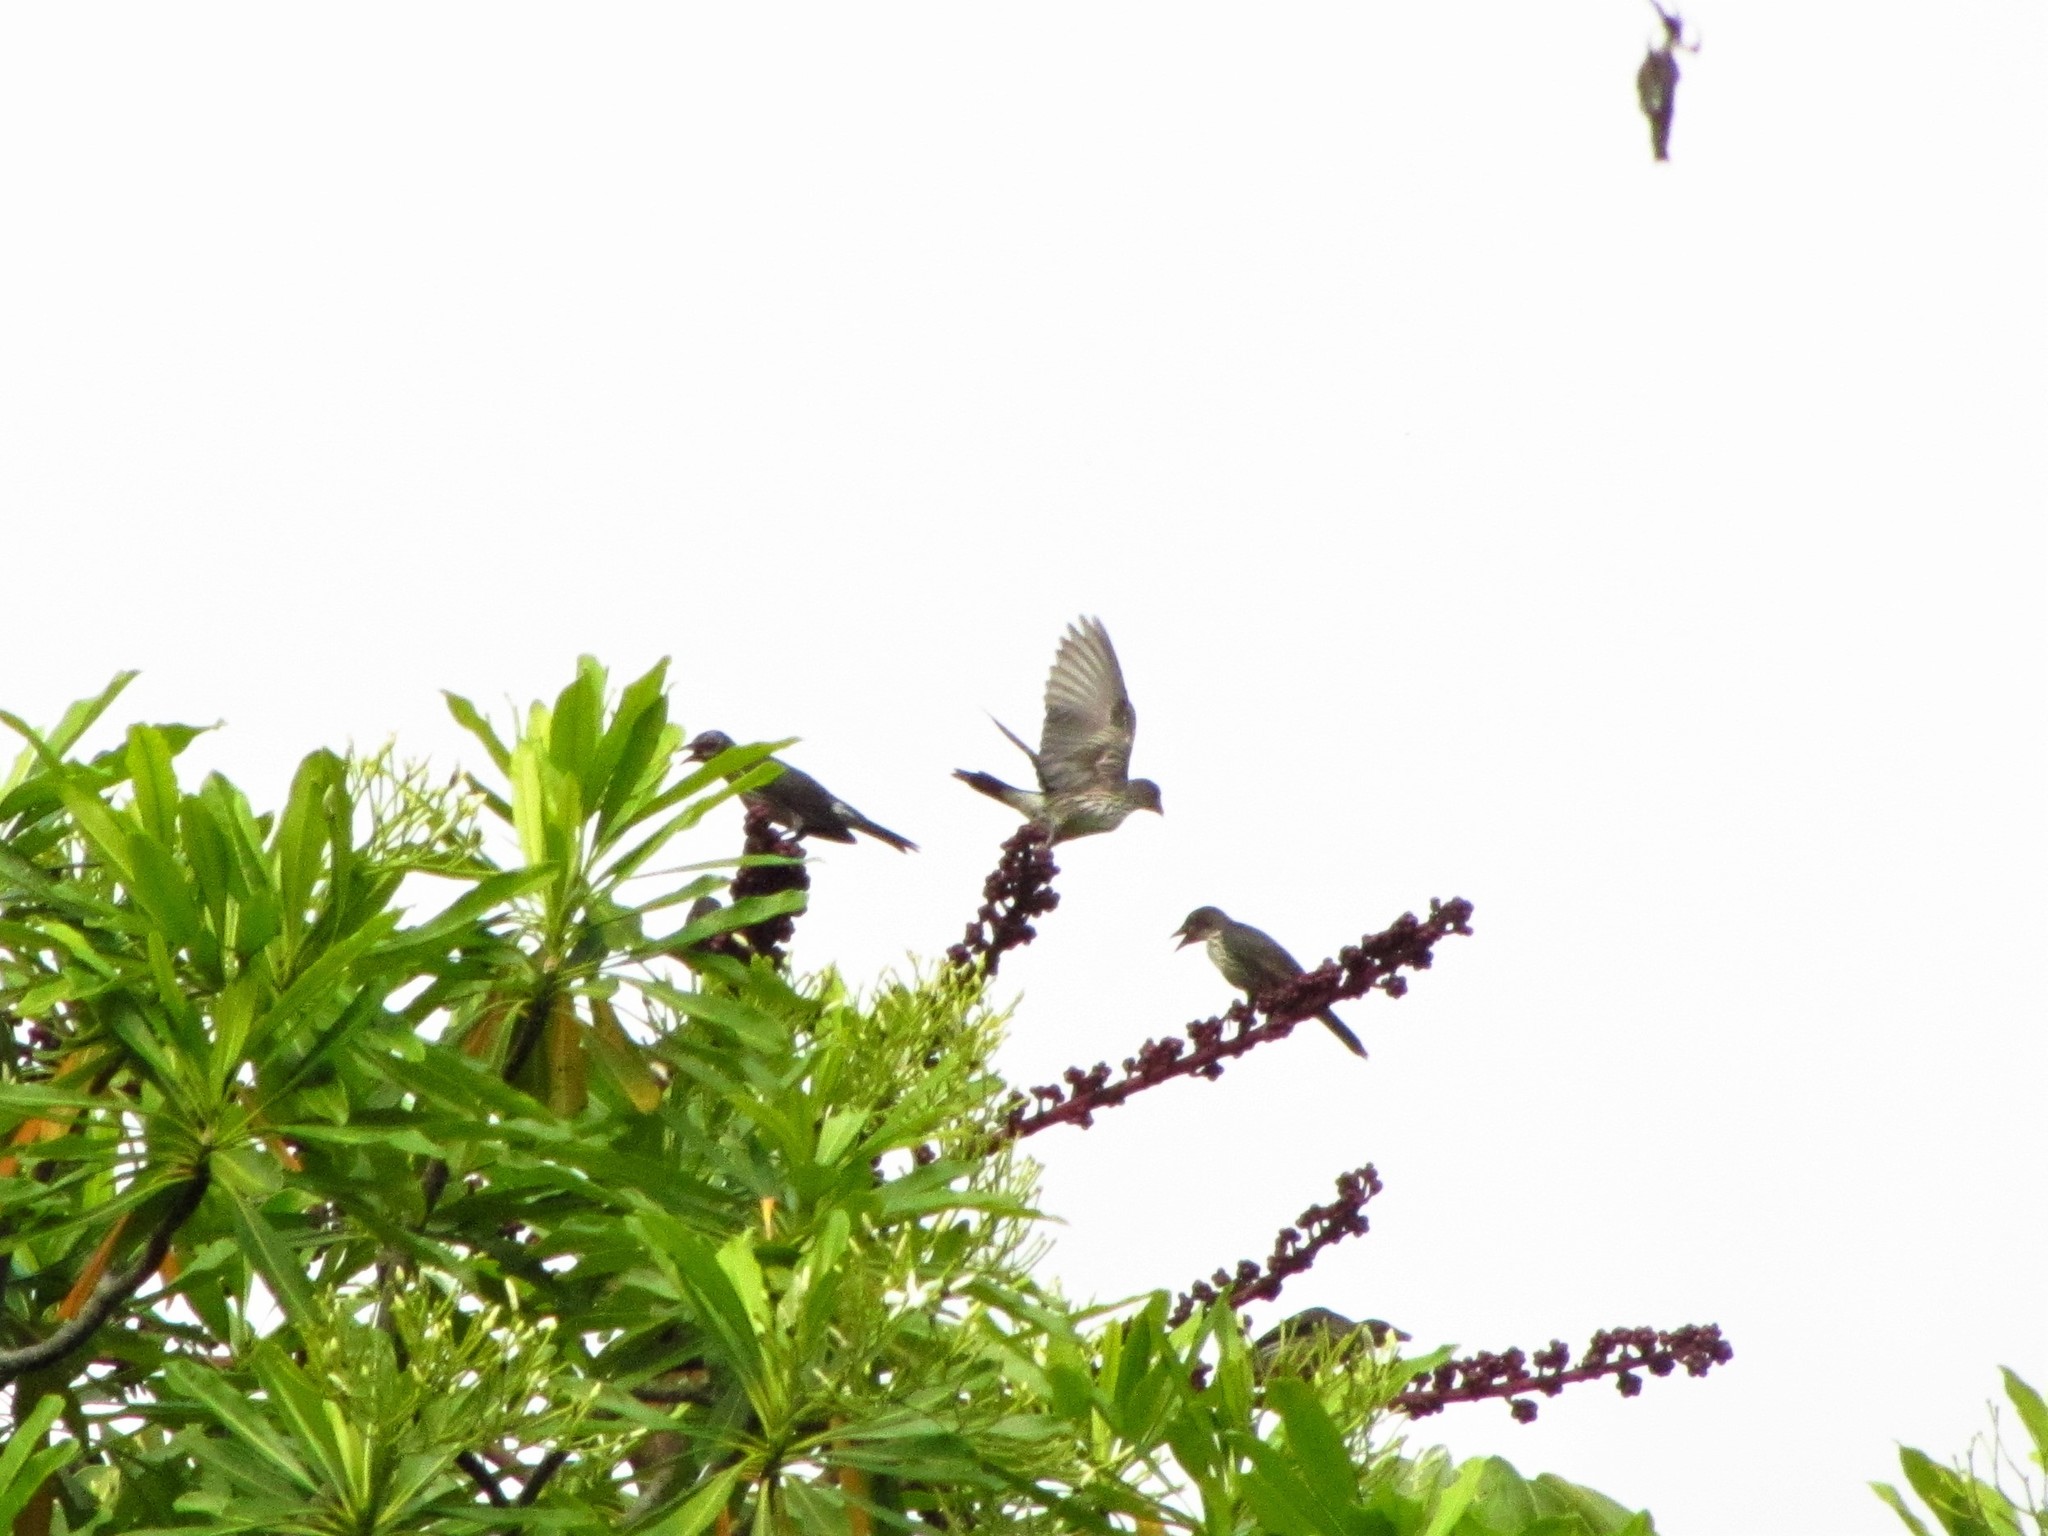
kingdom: Animalia
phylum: Chordata
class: Aves
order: Passeriformes
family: Sturnidae
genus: Aplonis
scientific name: Aplonis metallica
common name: Metallic starling
